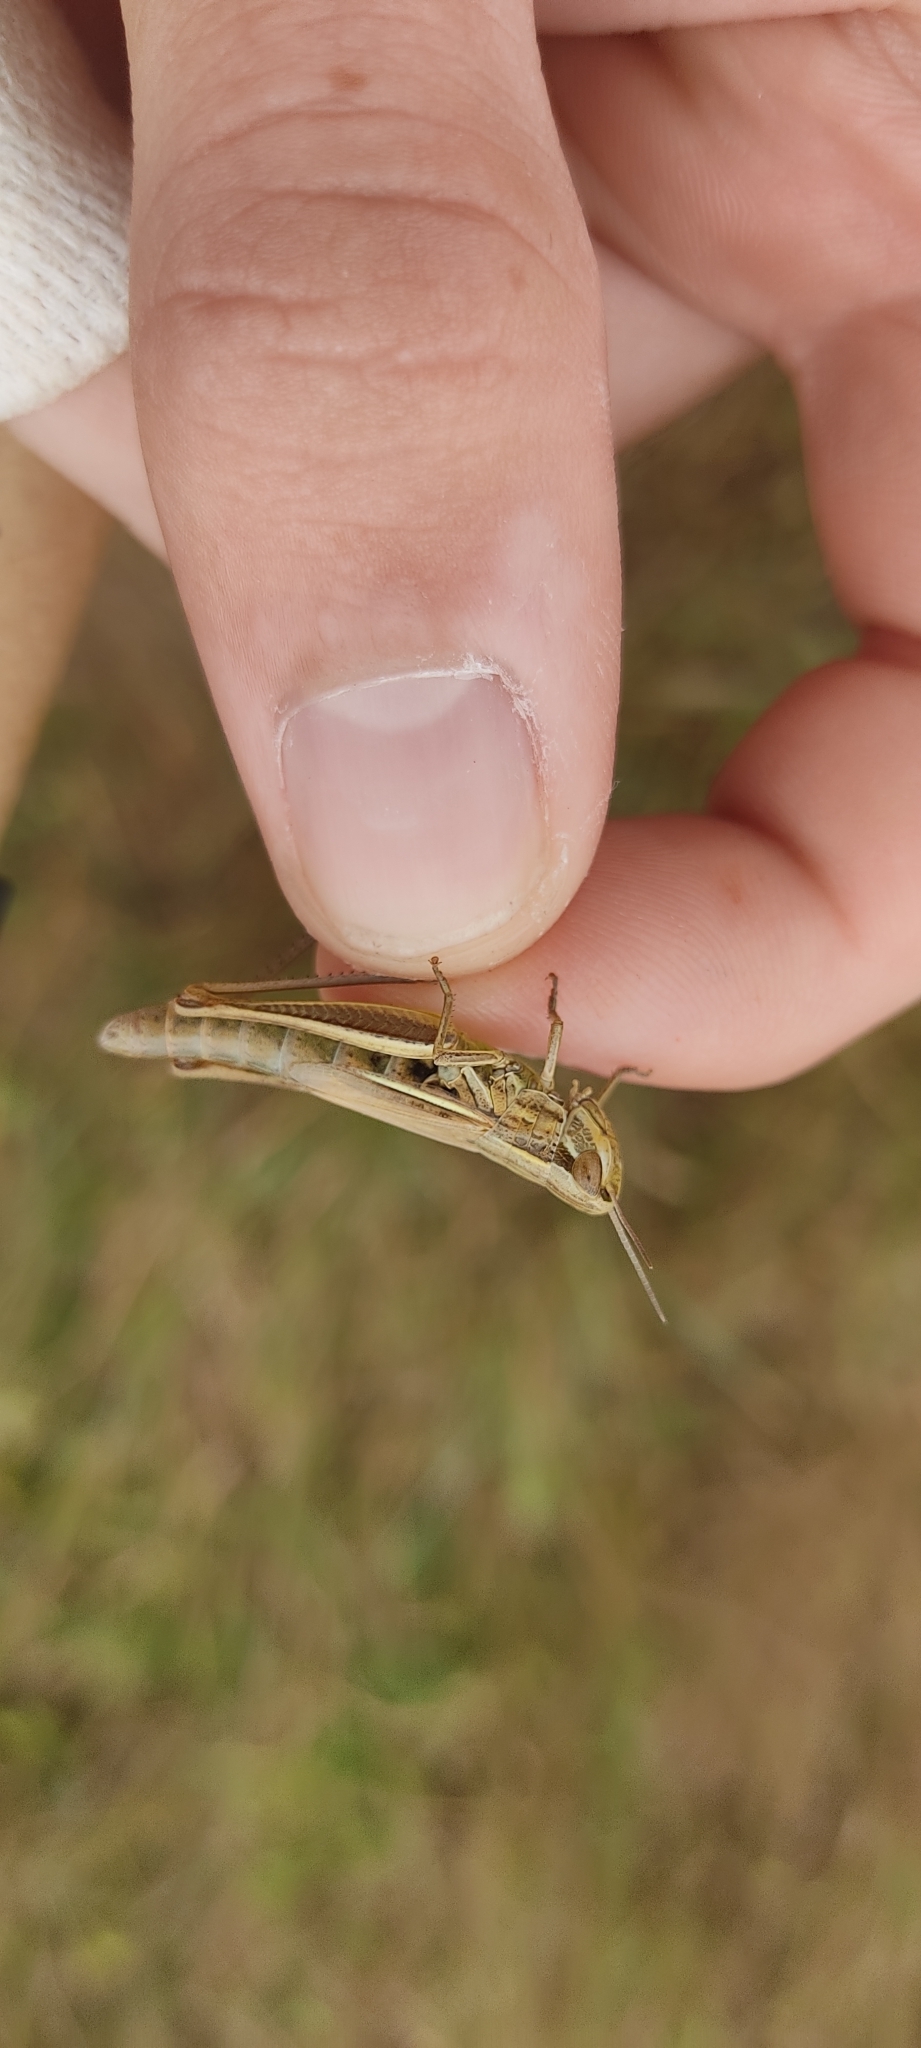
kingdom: Animalia
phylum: Arthropoda
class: Insecta
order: Orthoptera
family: Acrididae
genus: Euchorthippus
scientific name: Euchorthippus declivus
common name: Common straw grasshopper
